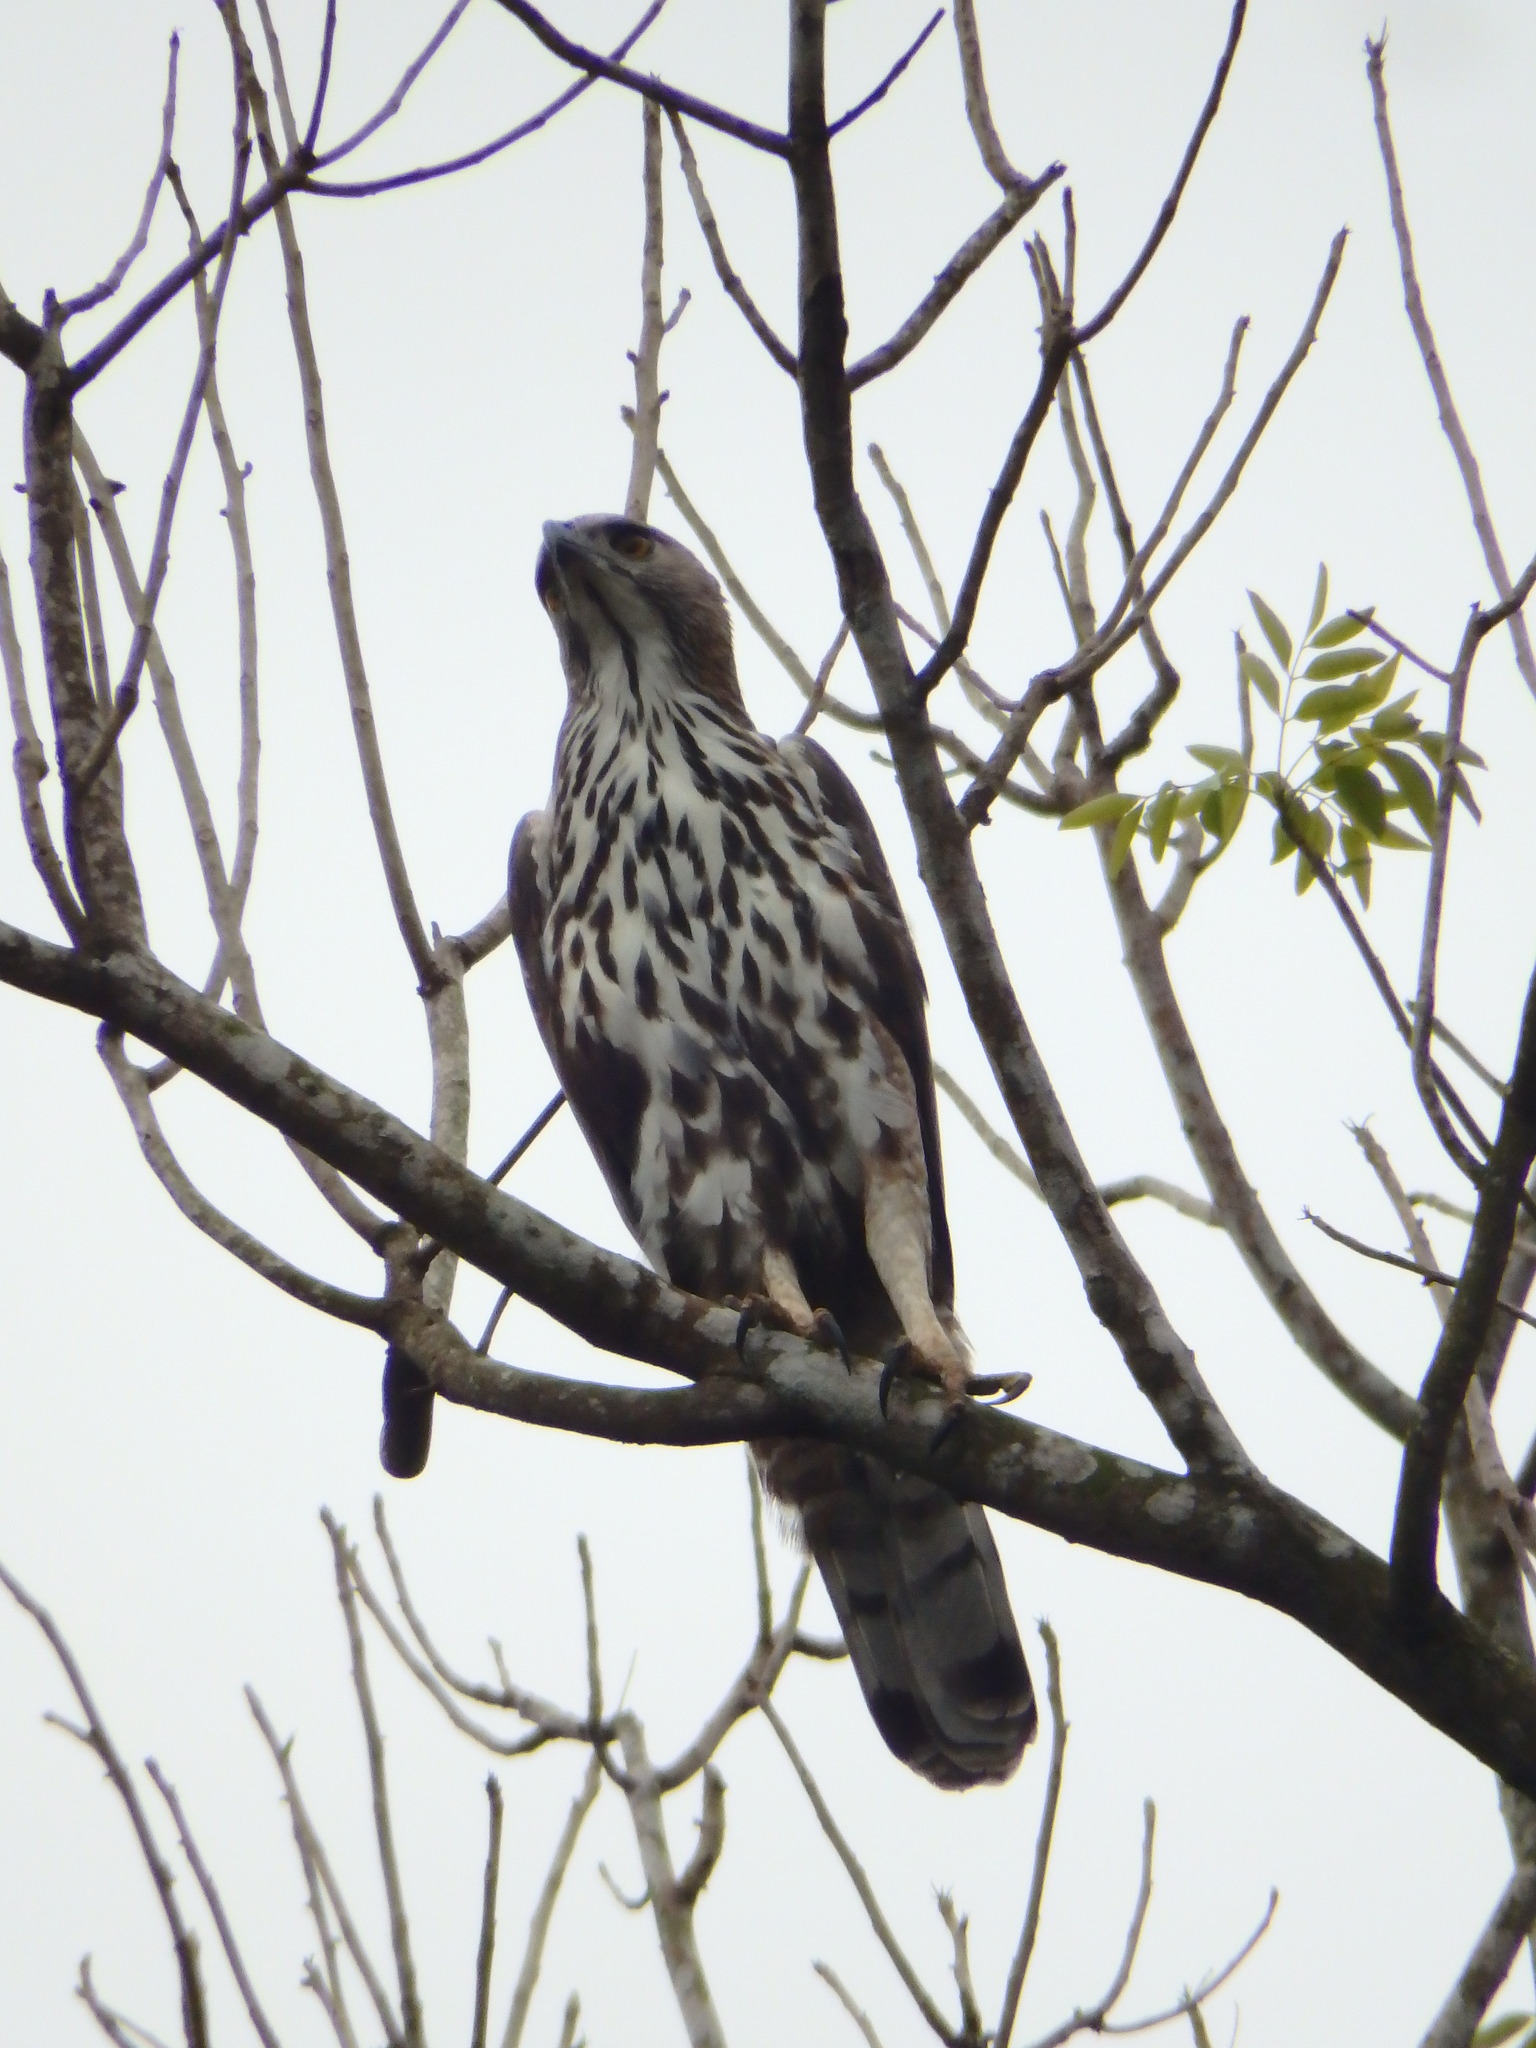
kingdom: Animalia
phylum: Chordata
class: Aves
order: Accipitriformes
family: Accipitridae
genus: Nisaetus
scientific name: Nisaetus cirrhatus
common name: Changeable hawk-eagle
